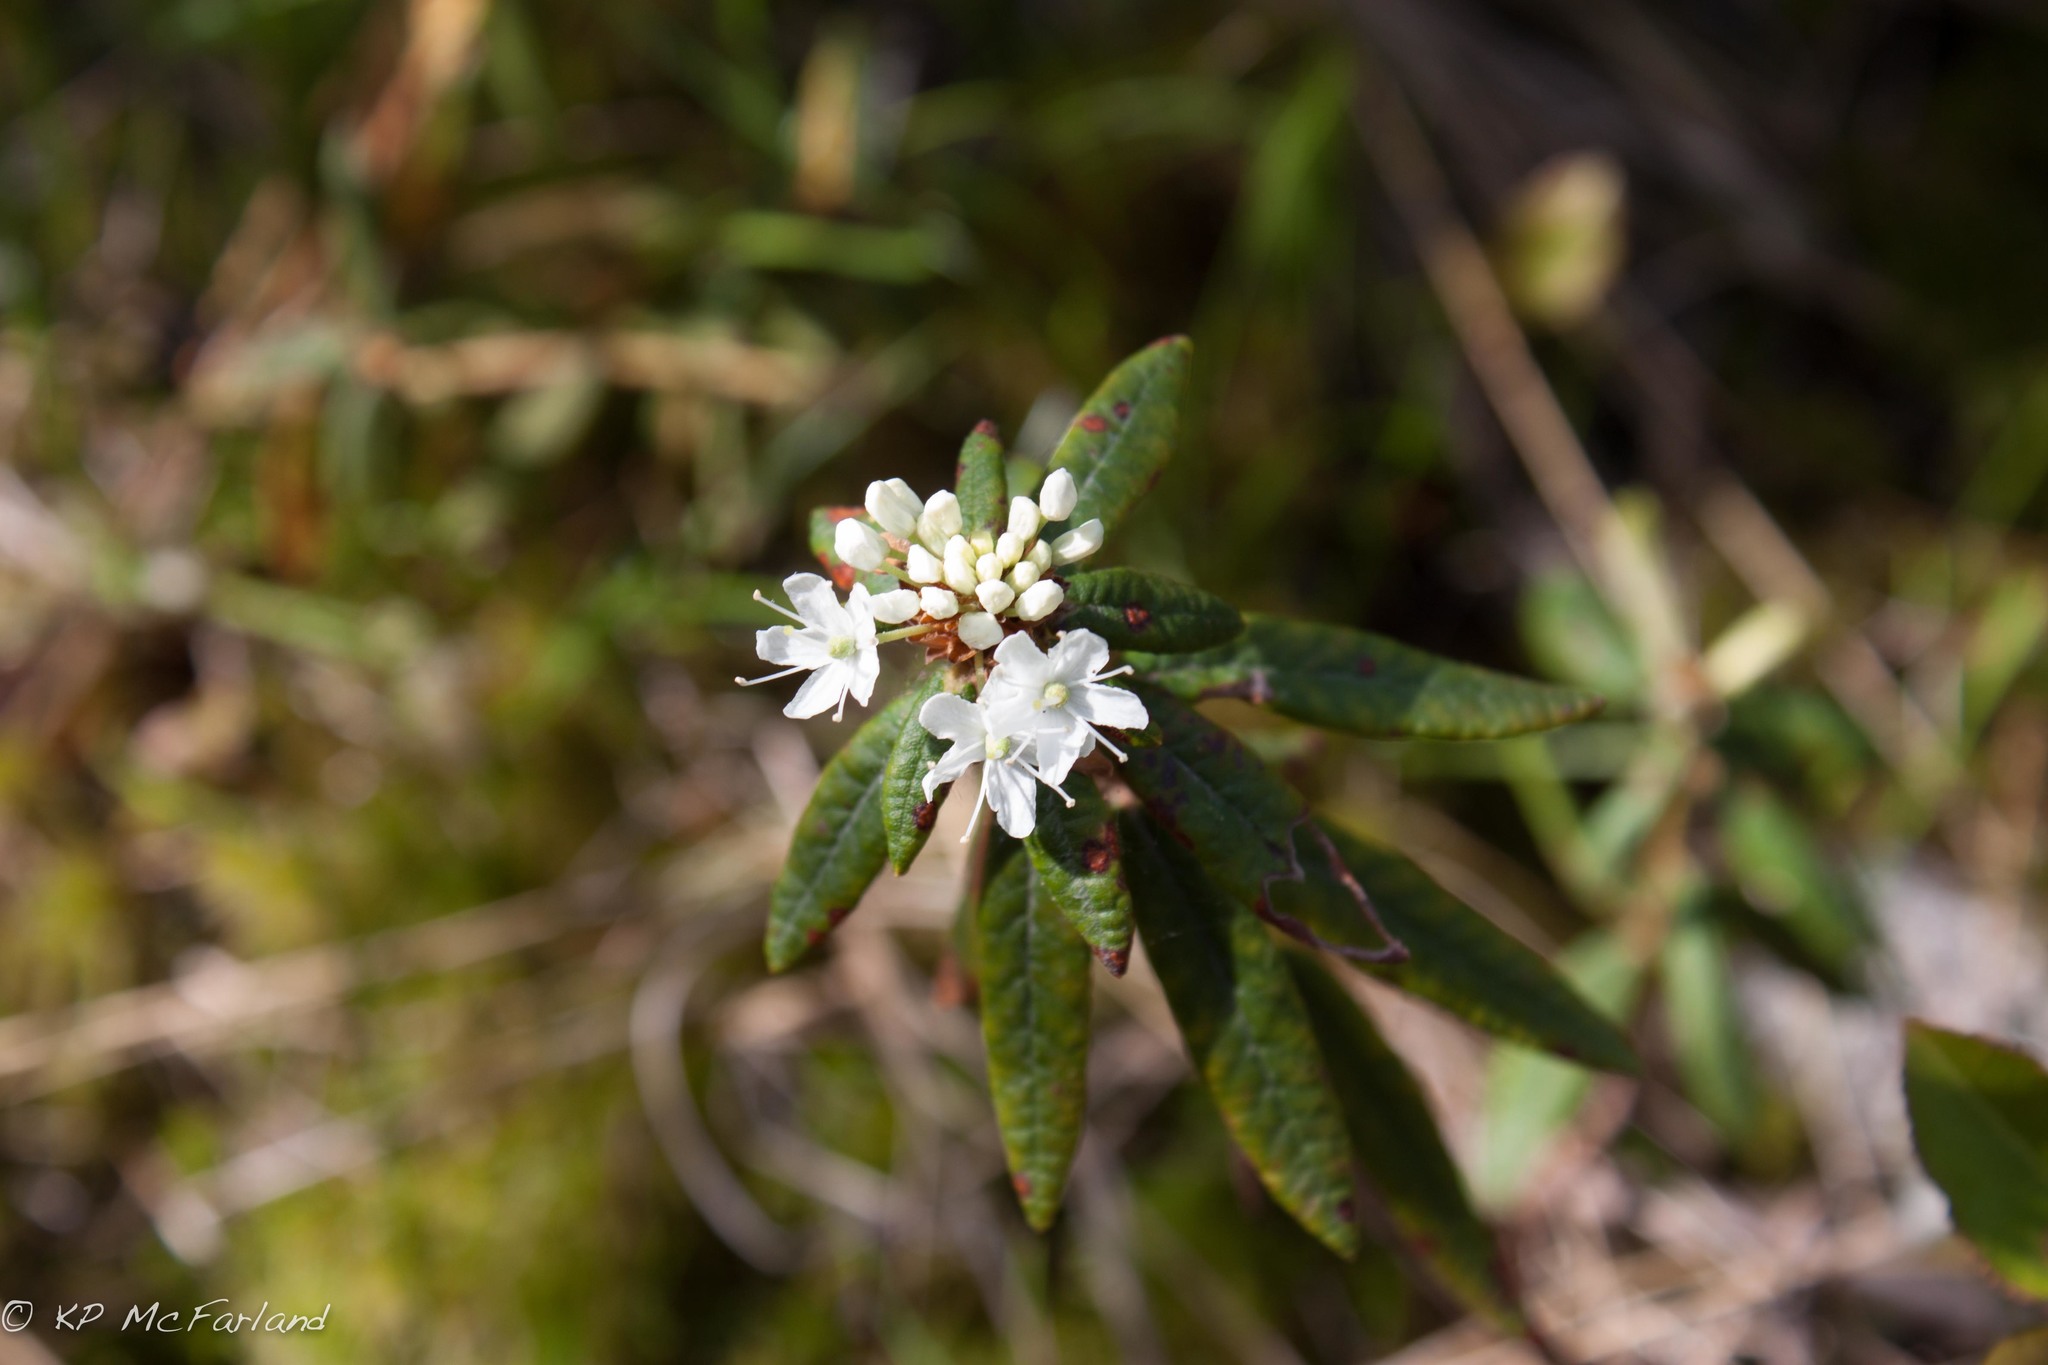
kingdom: Plantae
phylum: Tracheophyta
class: Magnoliopsida
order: Ericales
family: Ericaceae
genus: Rhododendron
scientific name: Rhododendron groenlandicum
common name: Bog labrador tea
